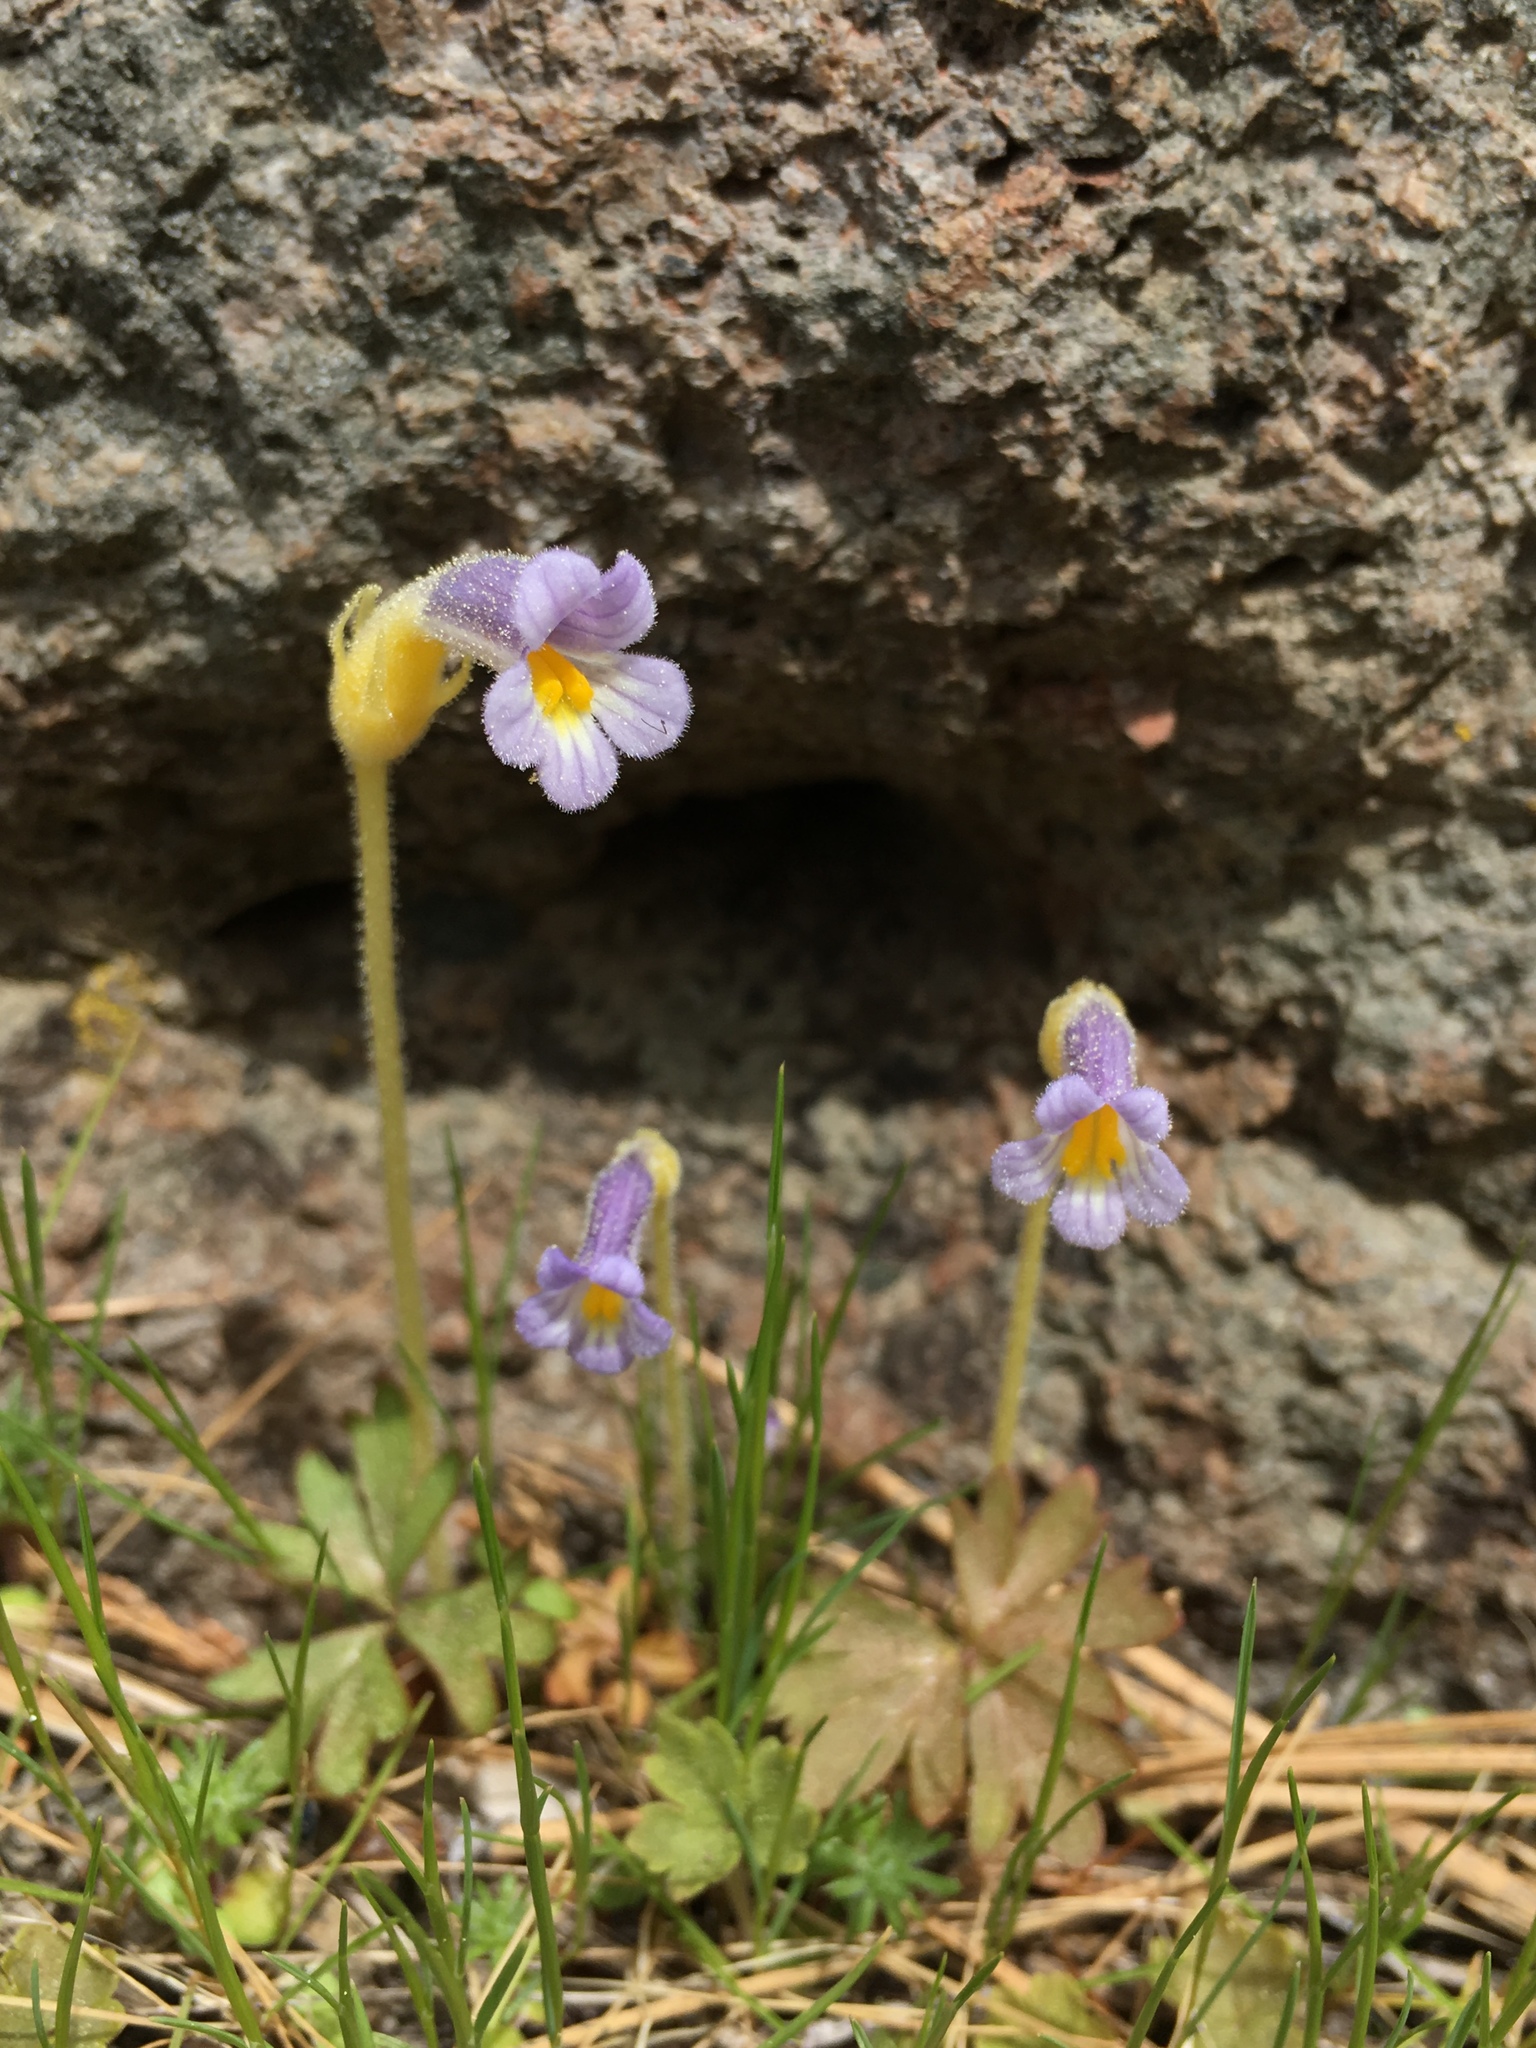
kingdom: Plantae
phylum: Tracheophyta
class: Magnoliopsida
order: Lamiales
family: Orobanchaceae
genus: Aphyllon
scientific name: Aphyllon uniflorum
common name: One-flowered broomrape
